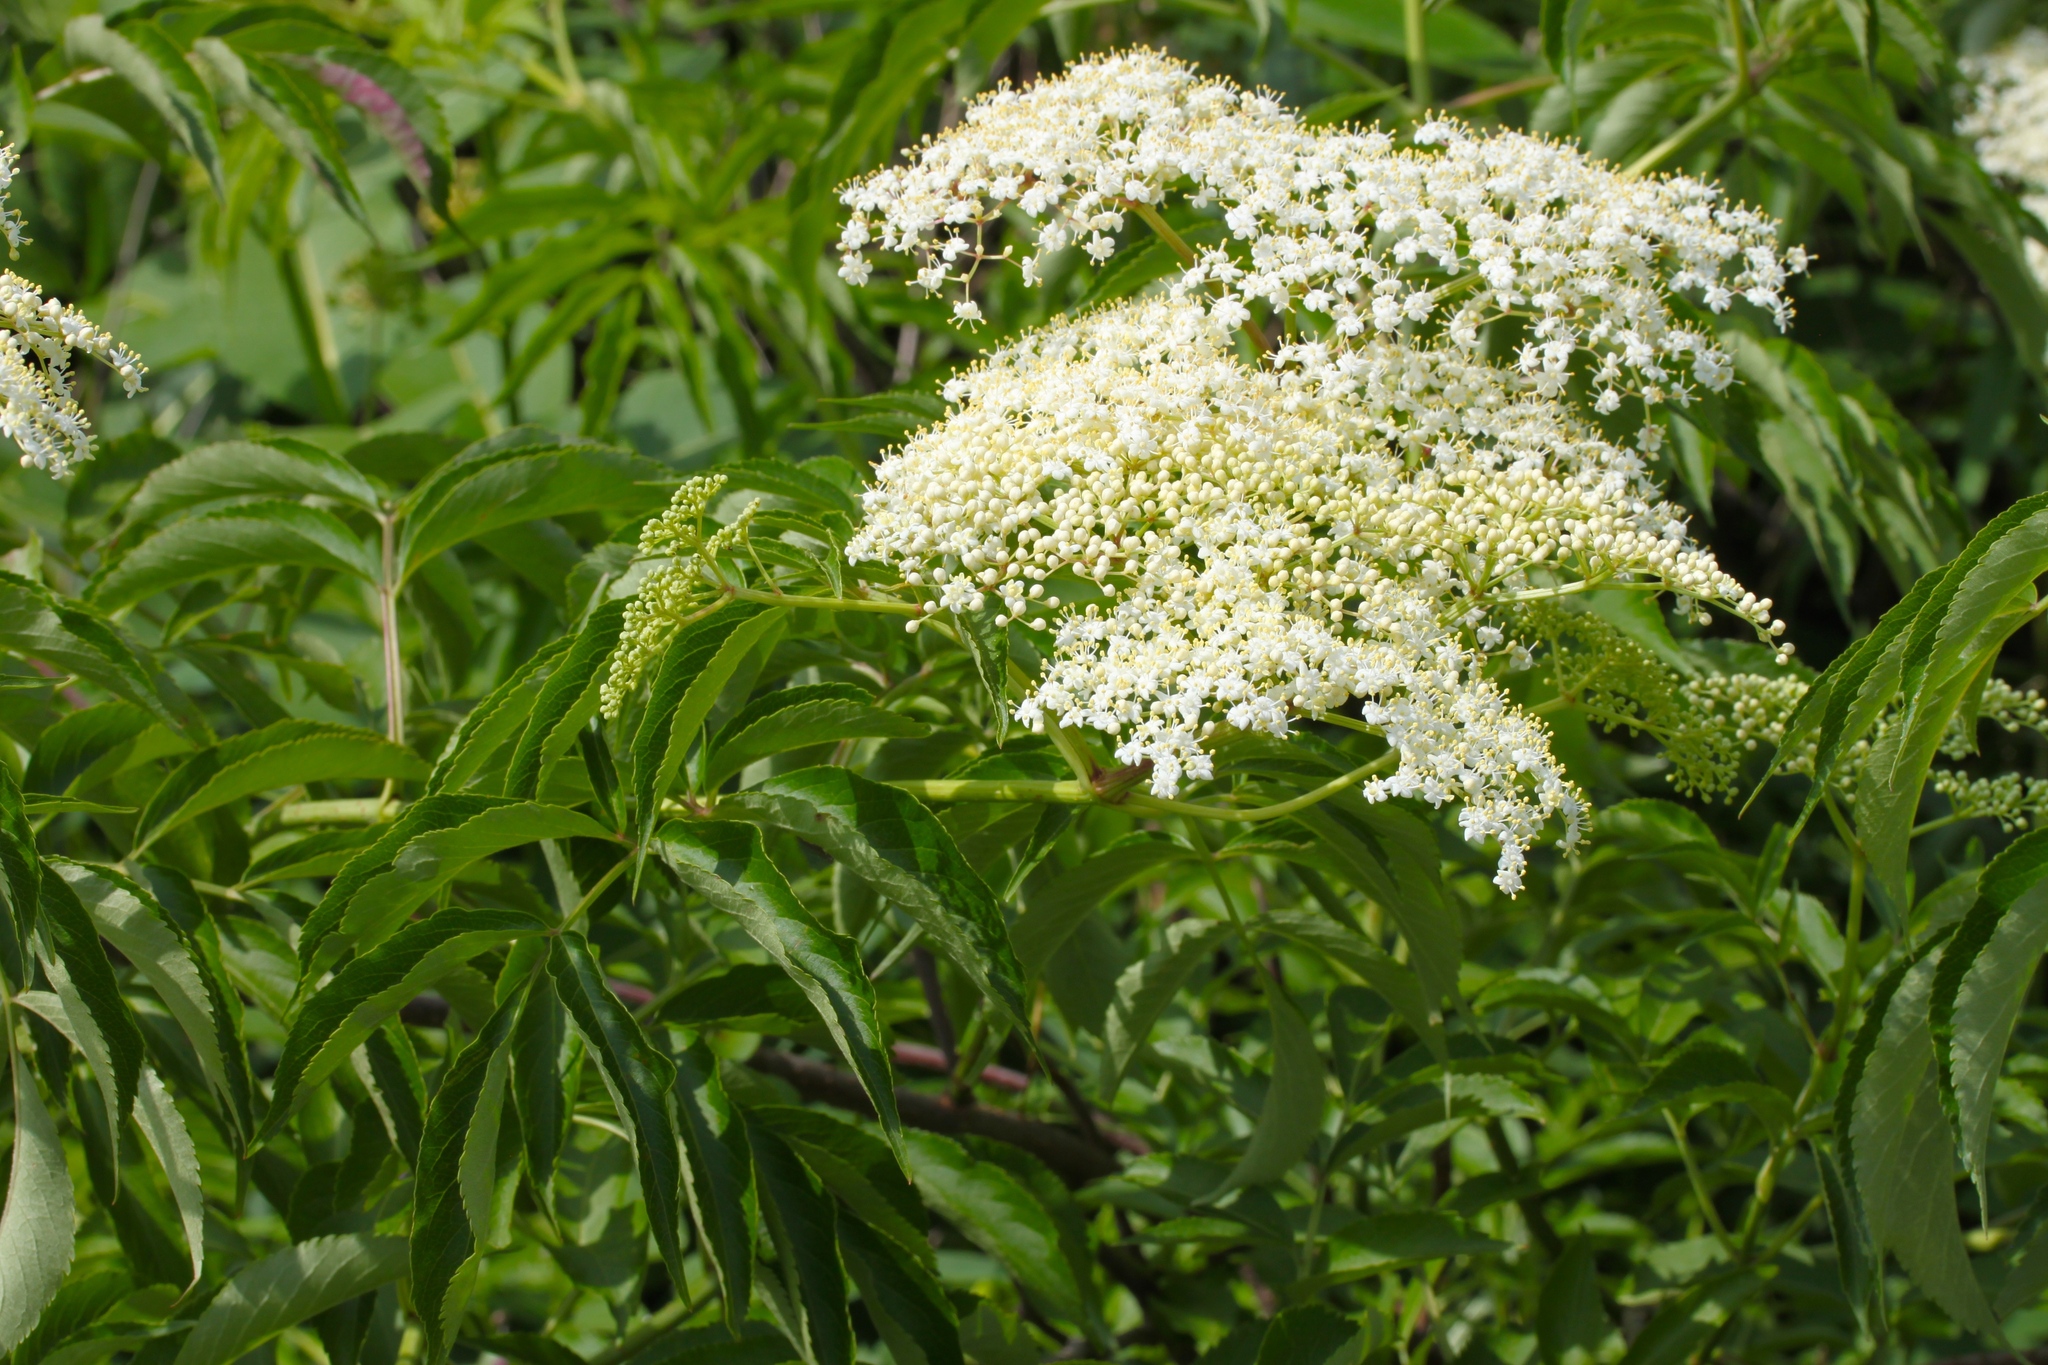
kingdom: Plantae
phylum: Tracheophyta
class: Magnoliopsida
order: Dipsacales
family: Viburnaceae
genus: Sambucus
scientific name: Sambucus canadensis
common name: American elder
